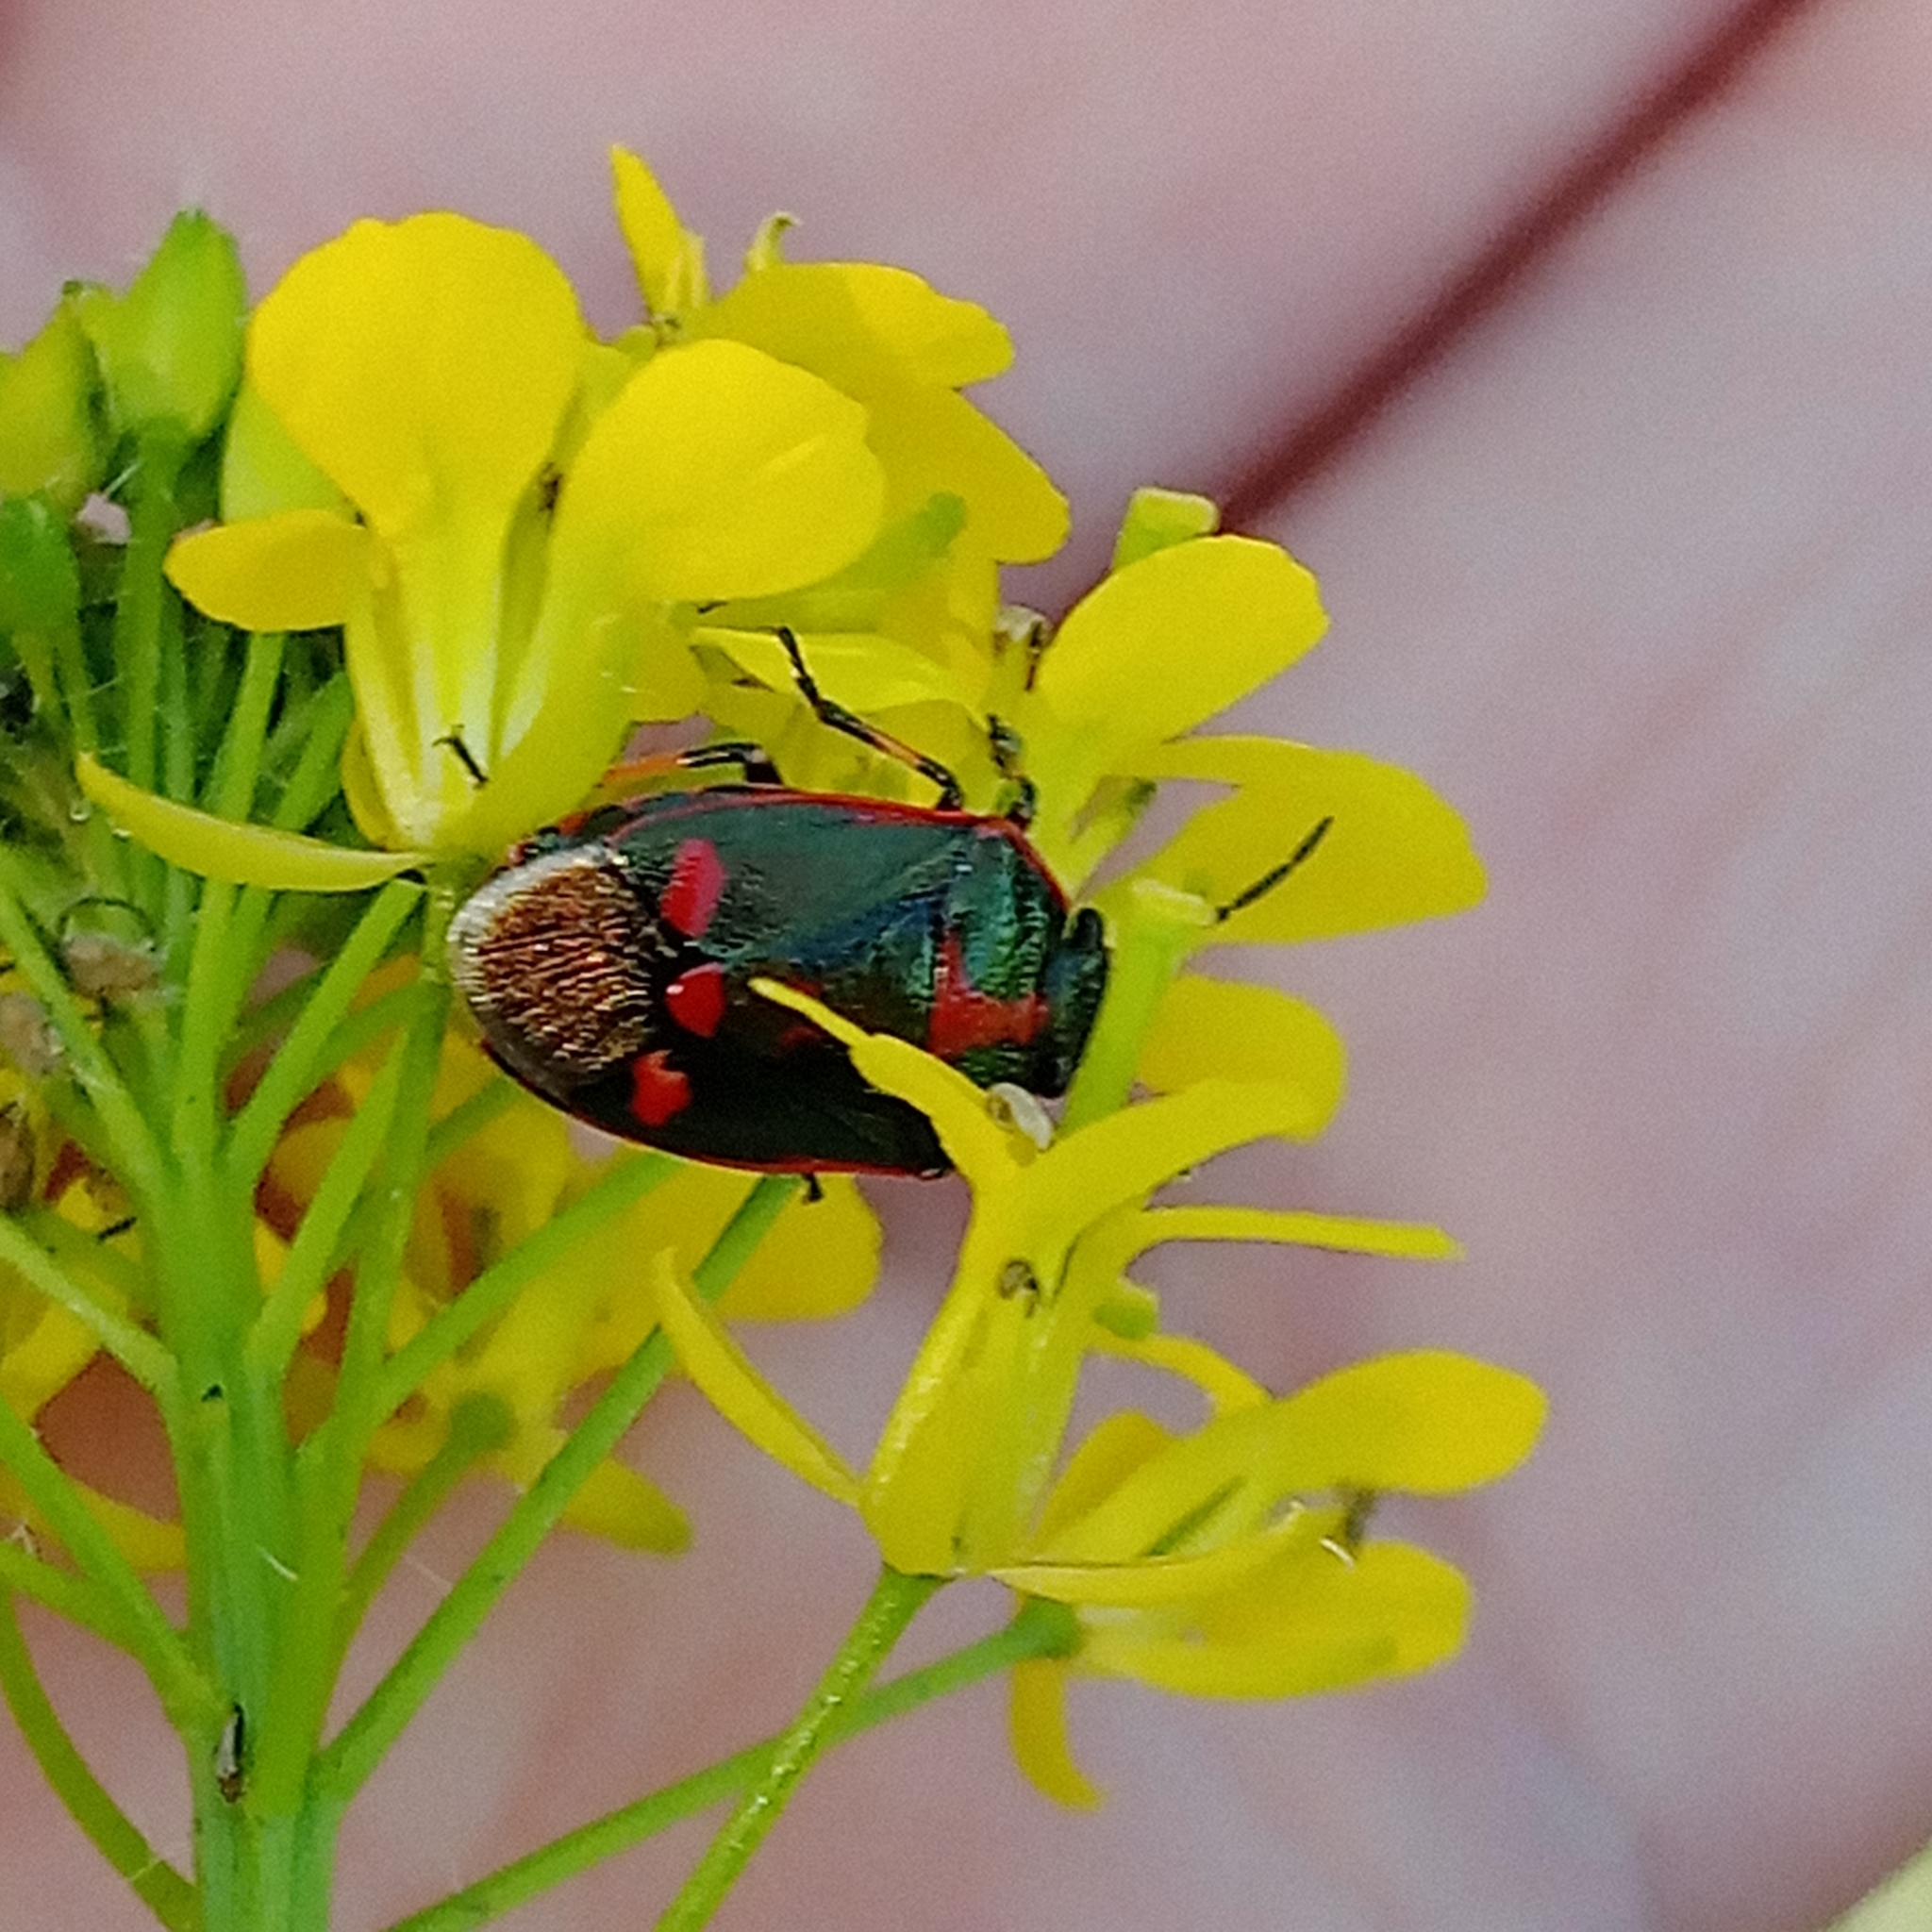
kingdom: Animalia
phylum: Arthropoda
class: Insecta
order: Hemiptera
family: Pentatomidae
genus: Eurydema
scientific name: Eurydema oleracea
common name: Cabbage bug
